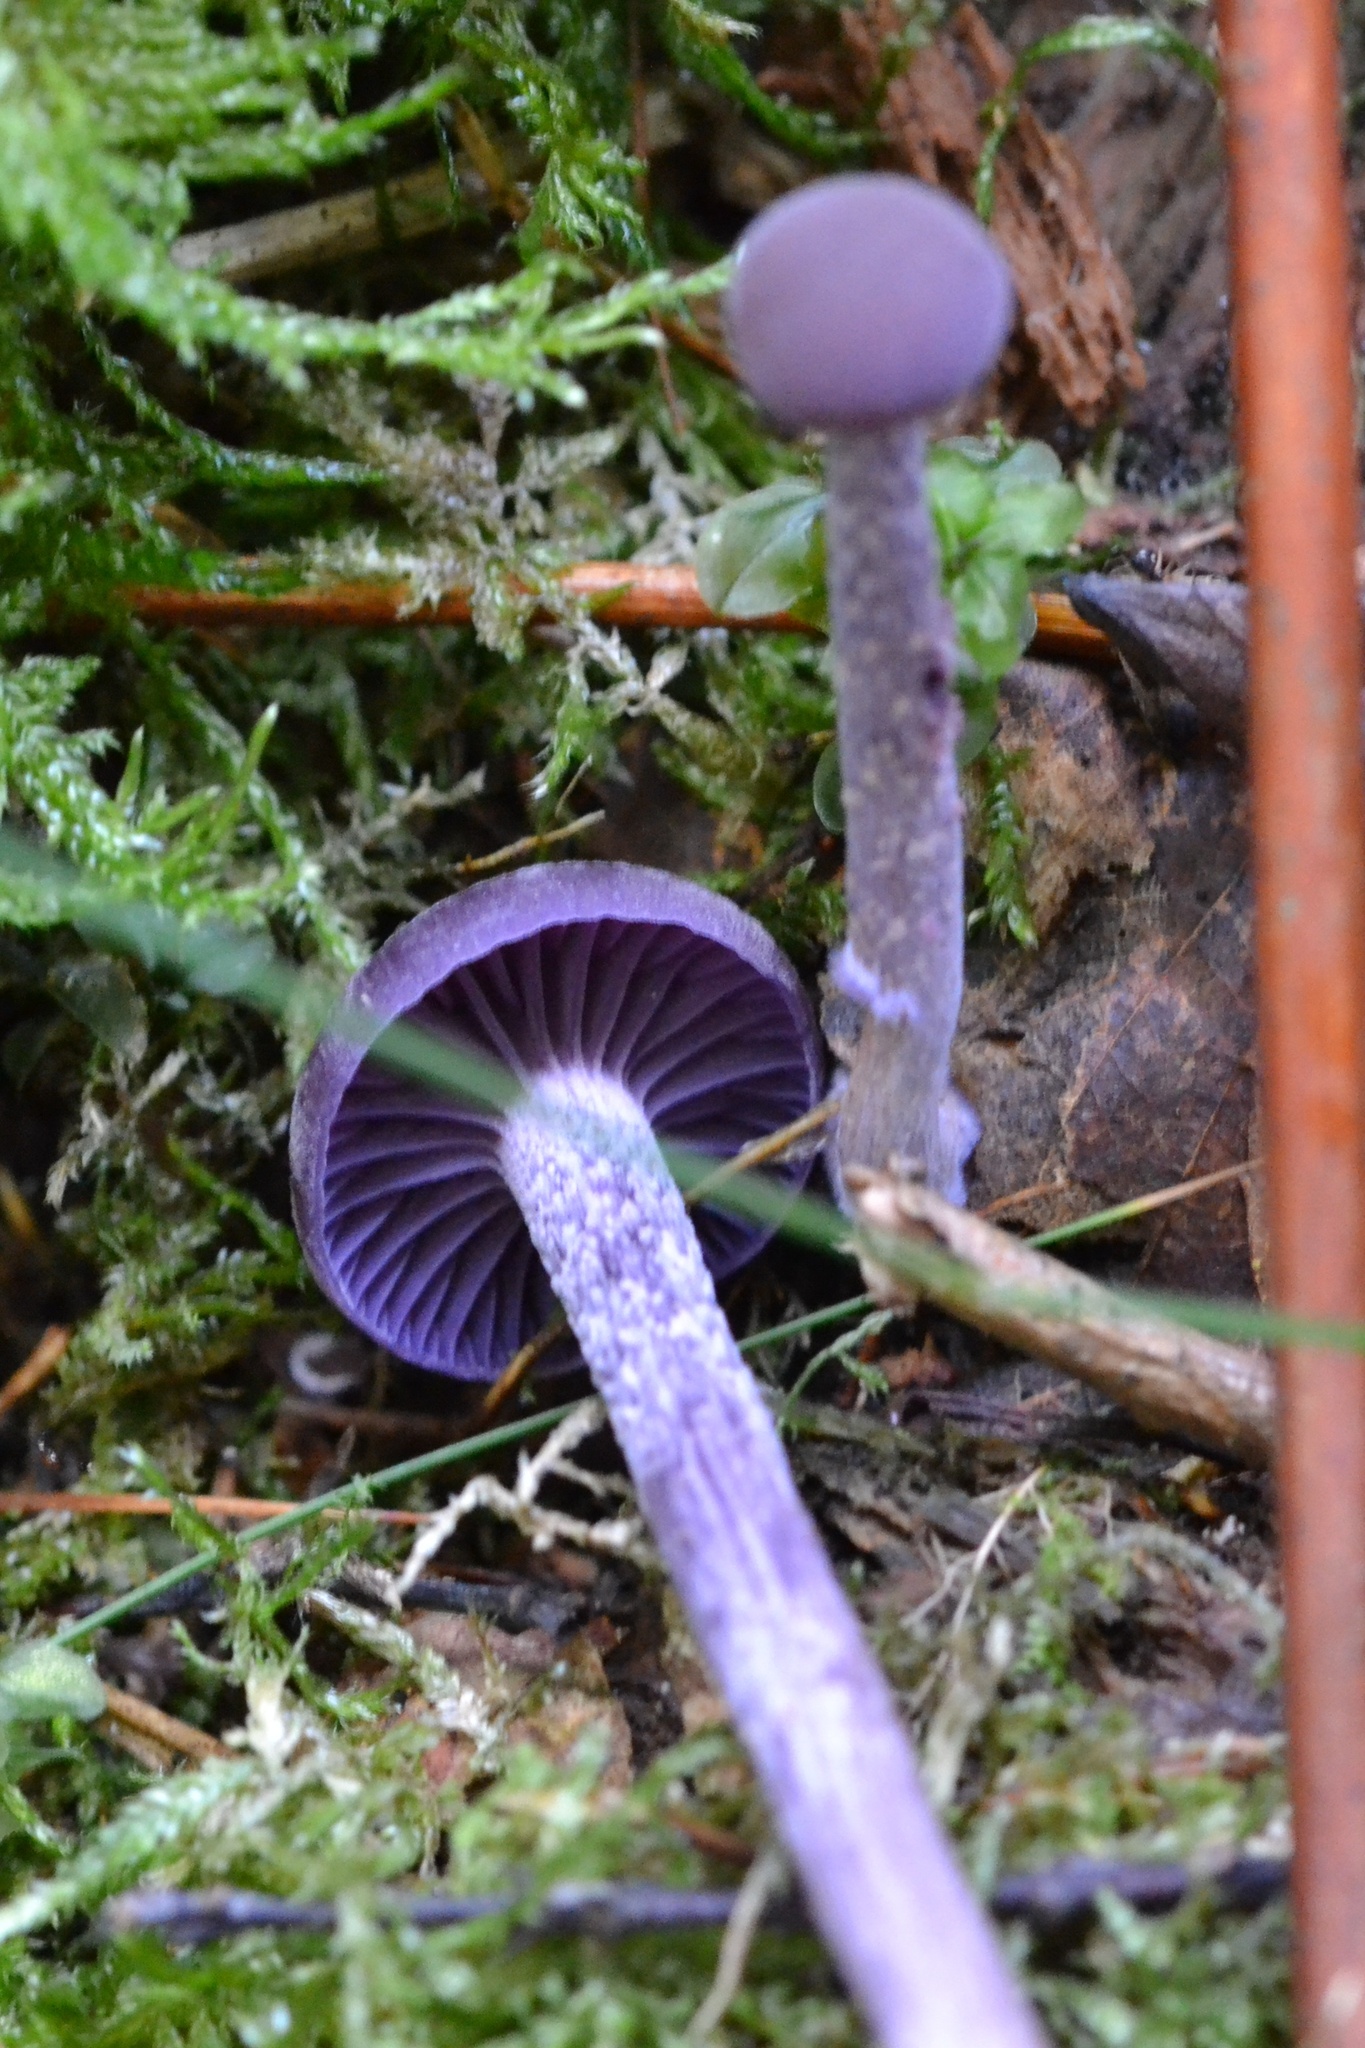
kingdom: Fungi
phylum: Basidiomycota
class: Agaricomycetes
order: Agaricales
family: Hydnangiaceae
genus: Laccaria
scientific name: Laccaria amethystina
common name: Amethyst deceiver
